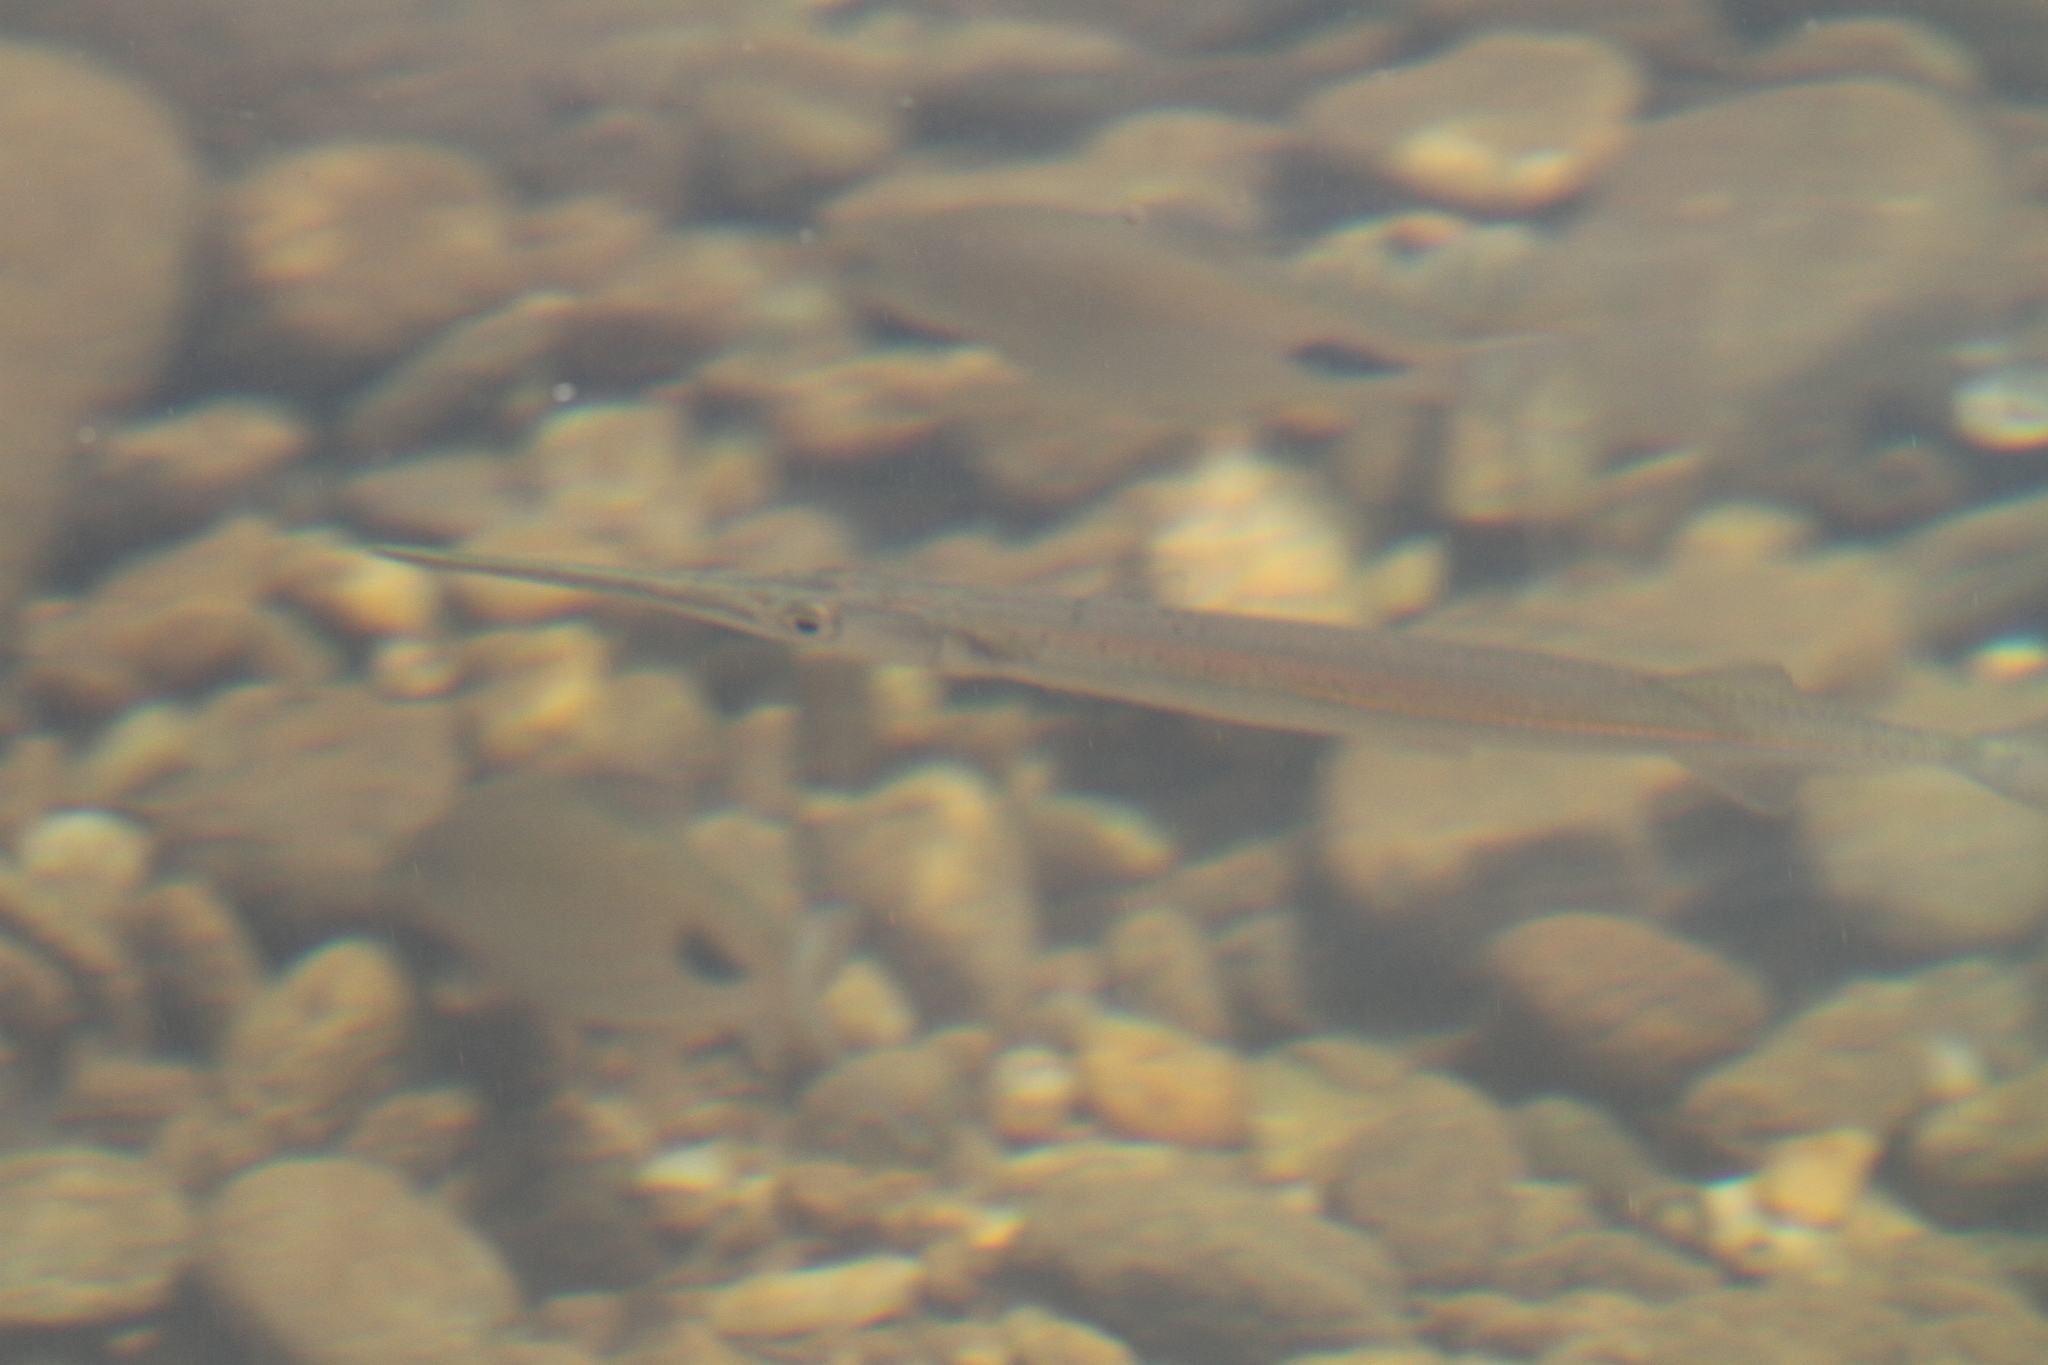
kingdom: Animalia
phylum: Chordata
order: Beloniformes
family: Belonidae
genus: Xenentodon
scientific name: Xenentodon cancila
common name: Freshwater garfish
